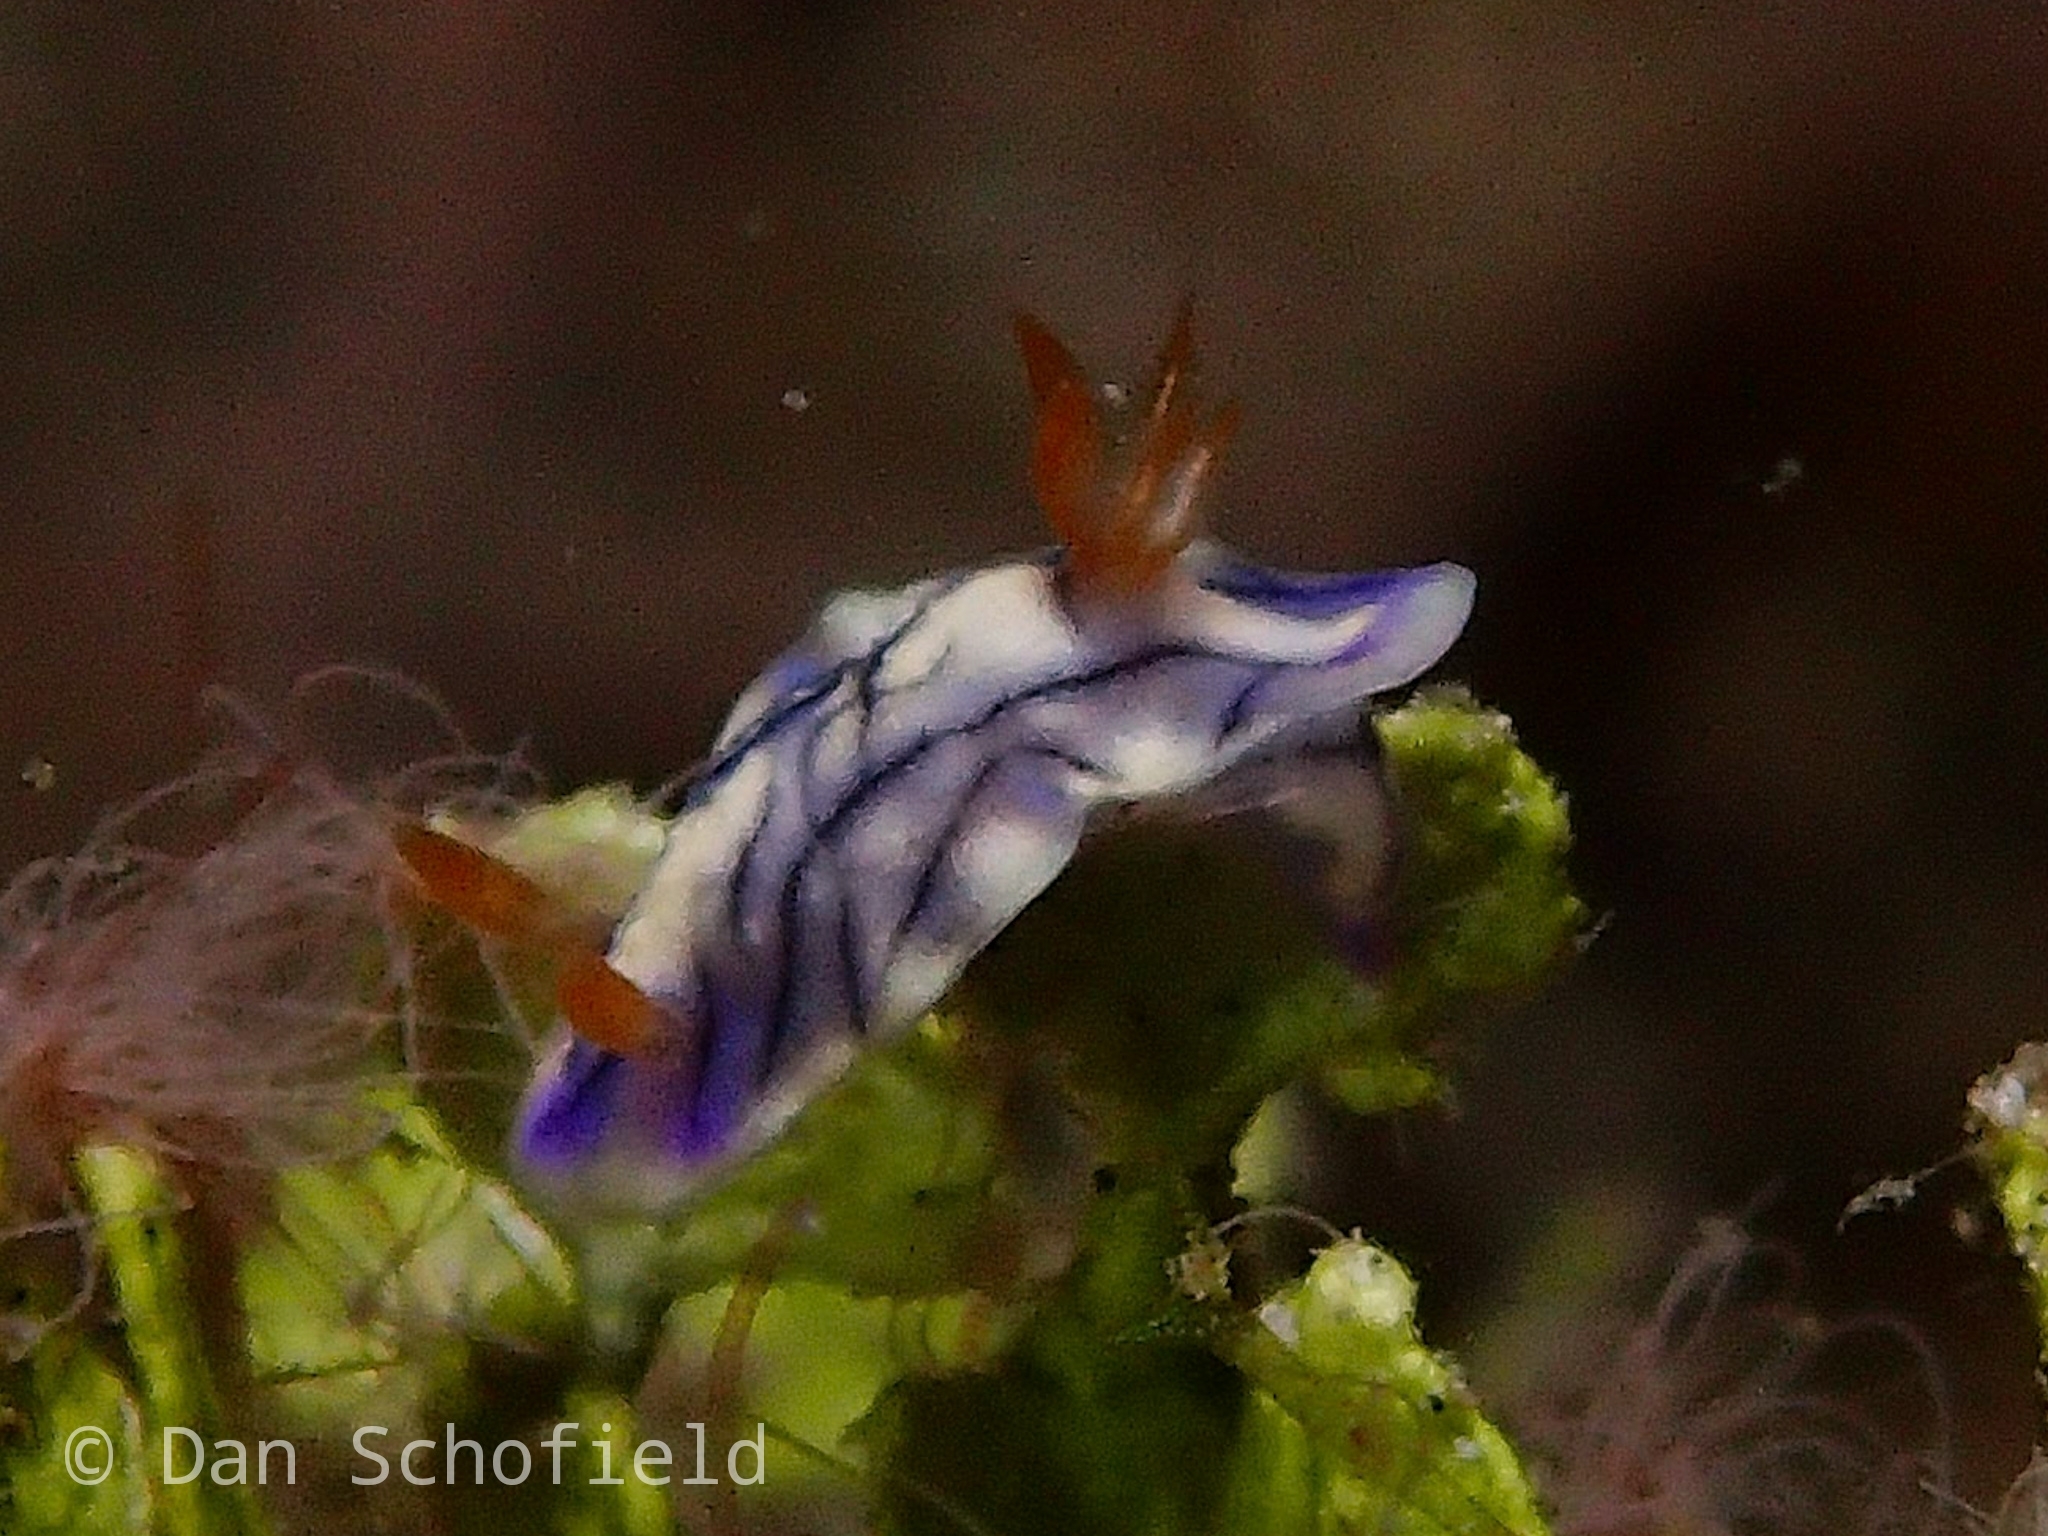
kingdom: Animalia
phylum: Mollusca
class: Gastropoda
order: Nudibranchia
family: Chromodorididae
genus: Hypselodoris
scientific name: Hypselodoris zephyra
